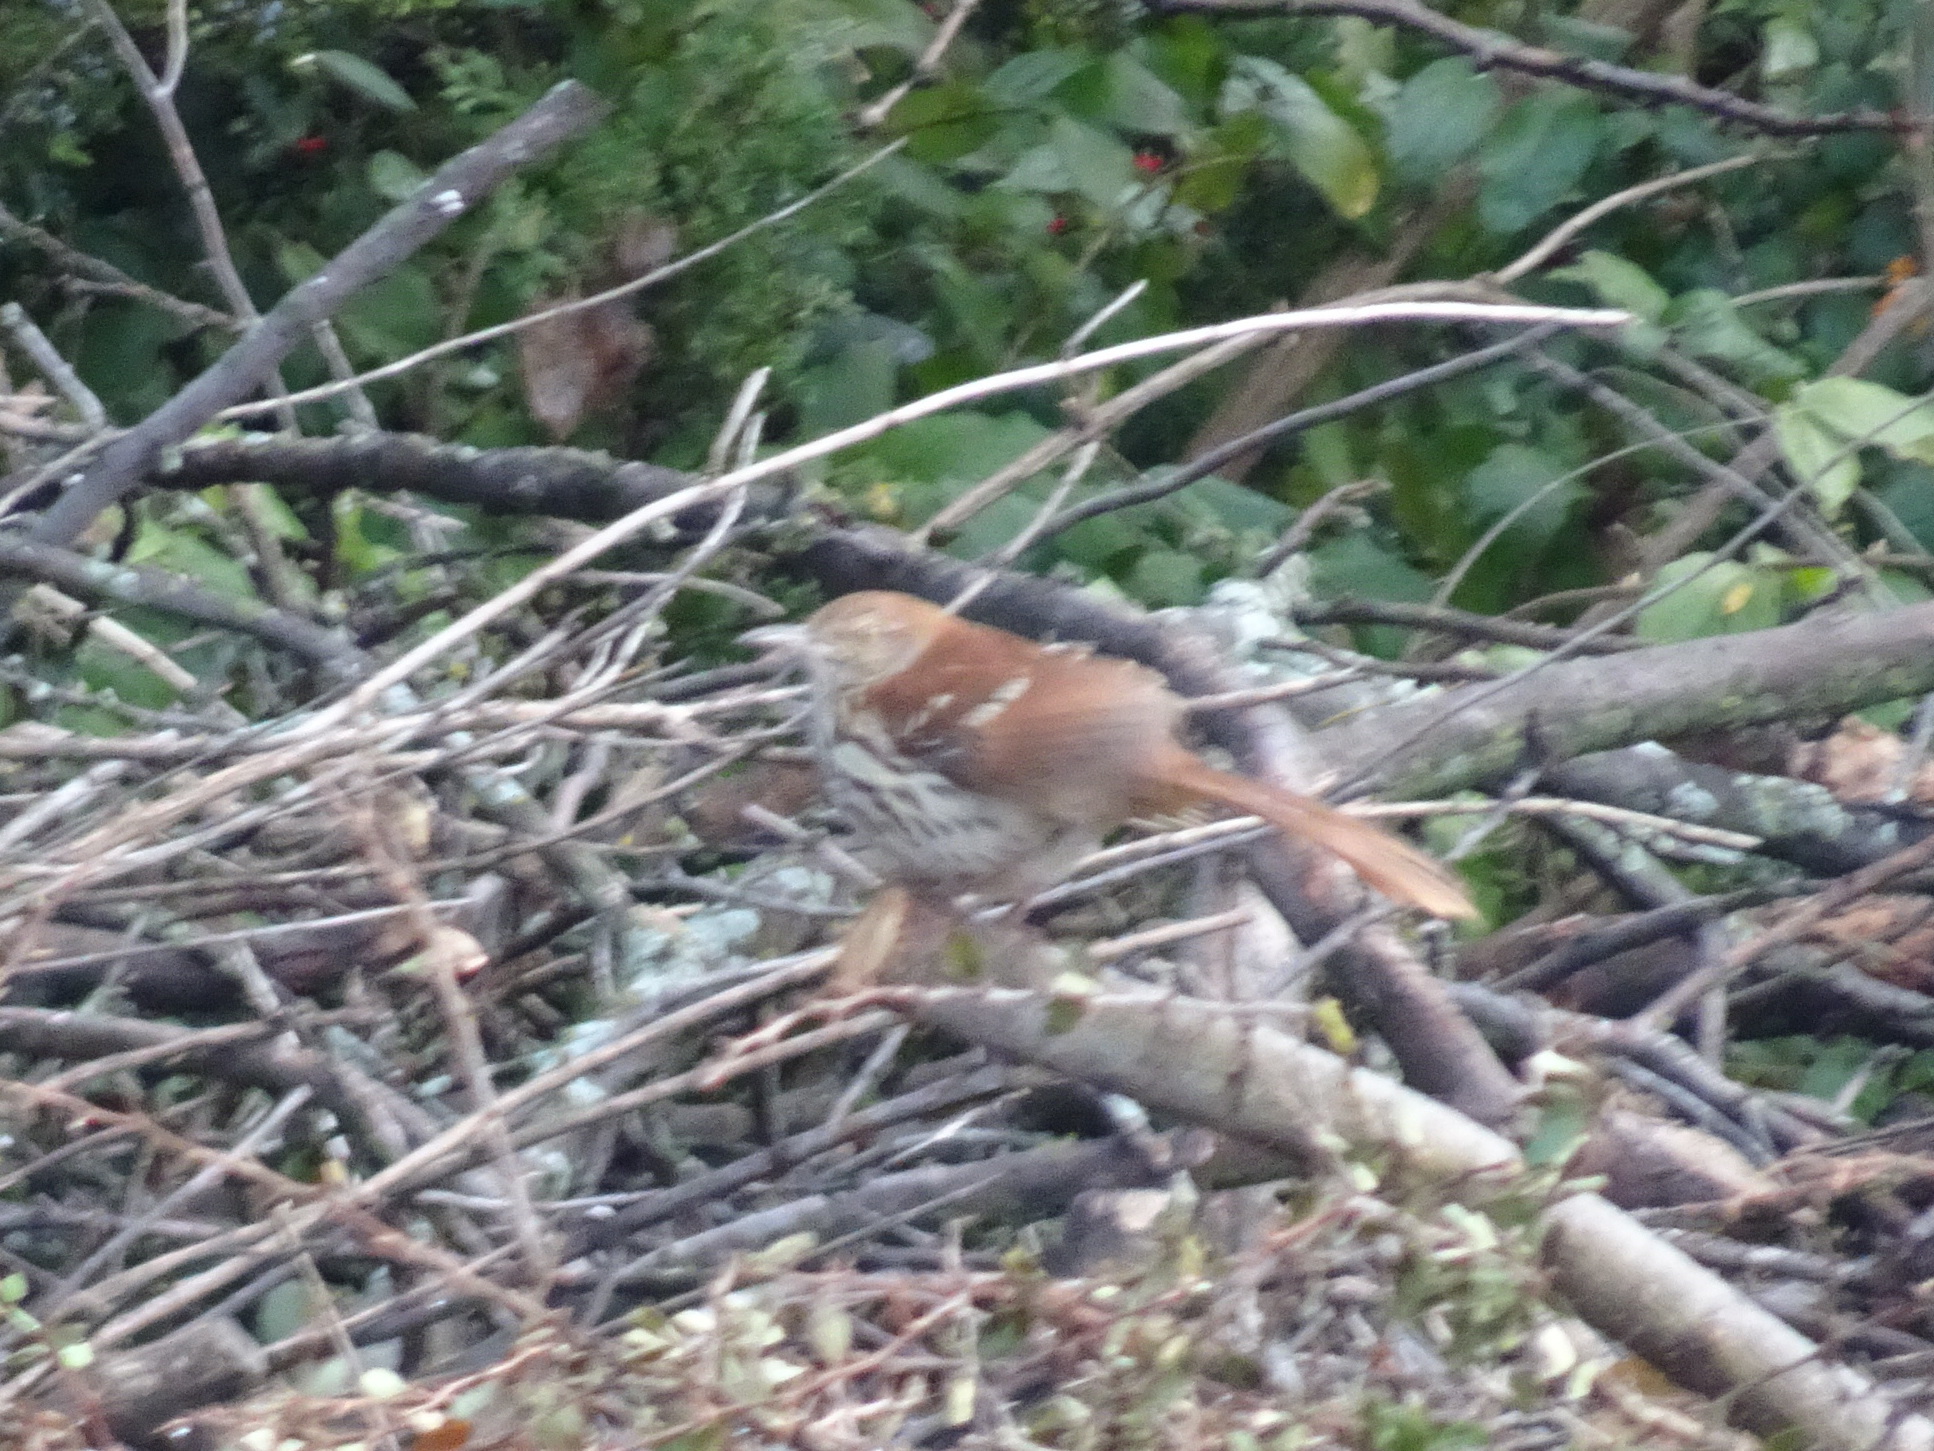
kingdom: Animalia
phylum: Chordata
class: Aves
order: Passeriformes
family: Mimidae
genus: Toxostoma
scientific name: Toxostoma rufum
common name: Brown thrasher
